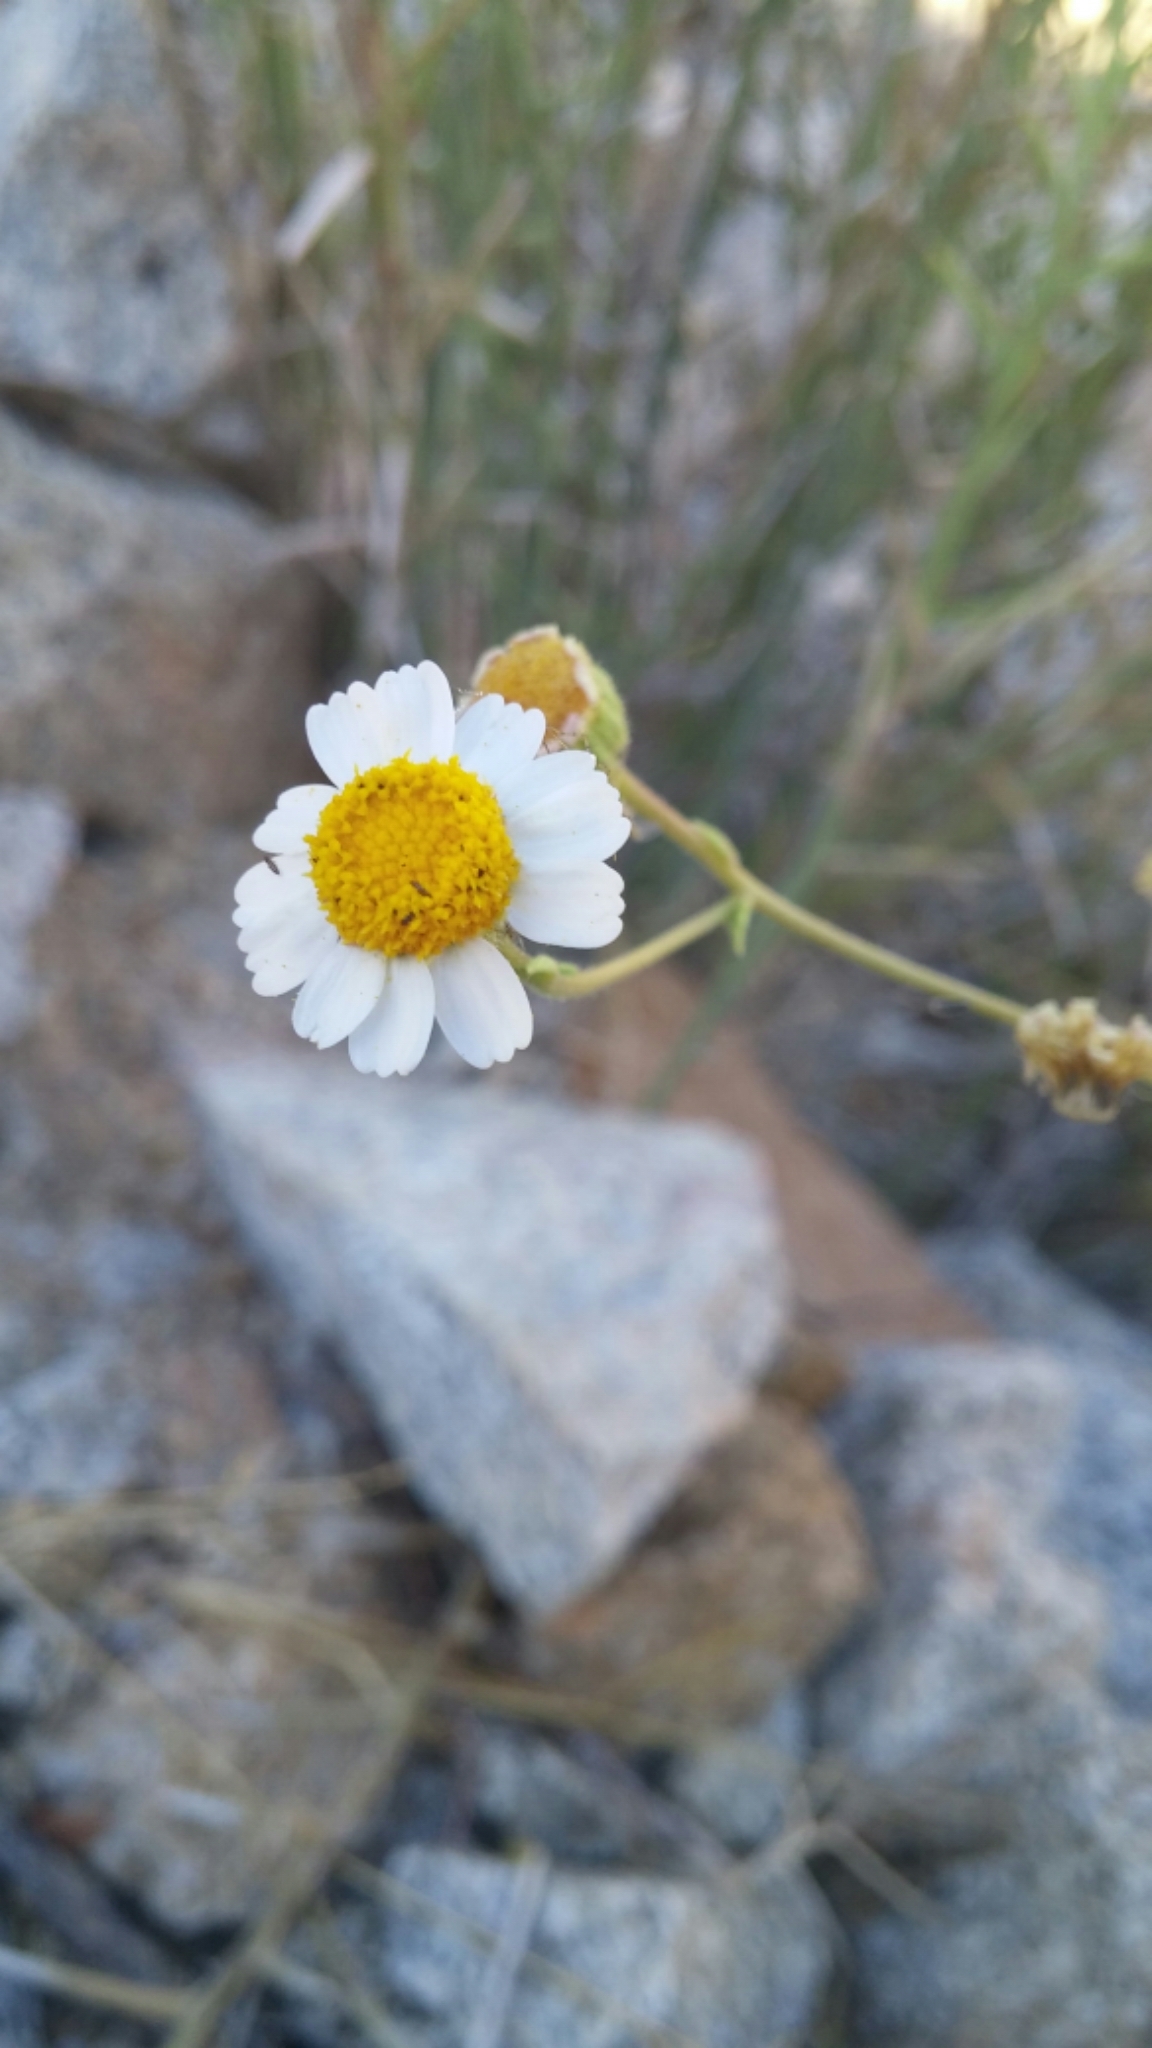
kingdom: Plantae
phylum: Tracheophyta
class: Magnoliopsida
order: Asterales
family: Asteraceae
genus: Perityle
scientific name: Perityle crassifolia
